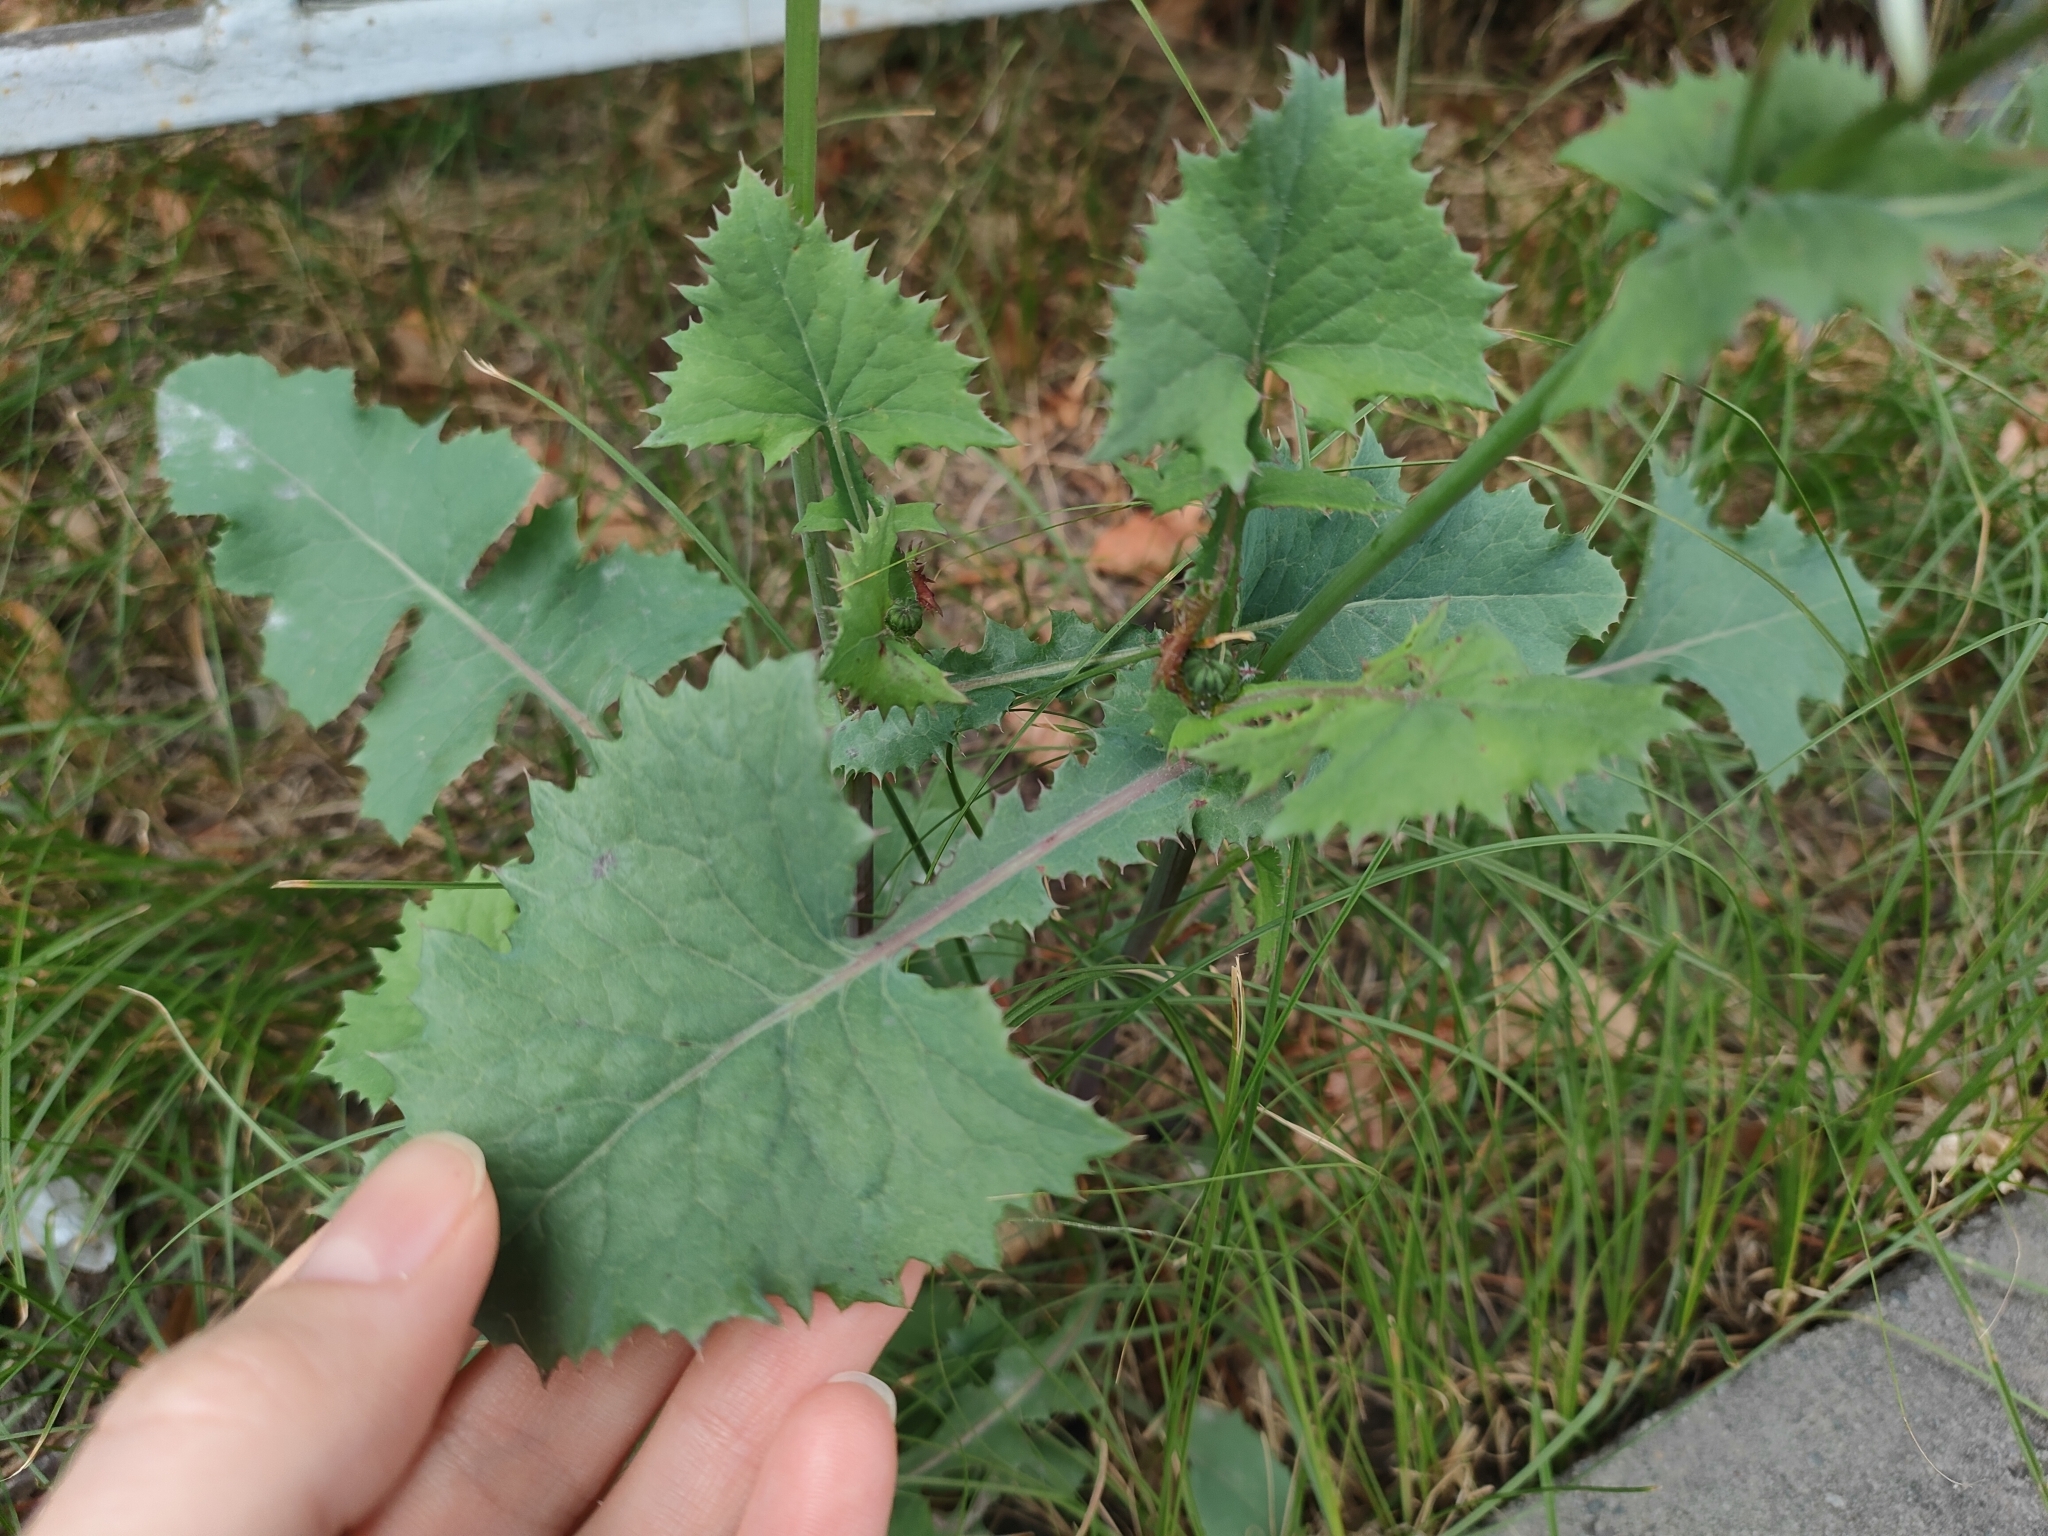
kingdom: Plantae
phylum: Tracheophyta
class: Magnoliopsida
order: Asterales
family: Asteraceae
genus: Sonchus
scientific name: Sonchus oleraceus
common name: Common sowthistle
